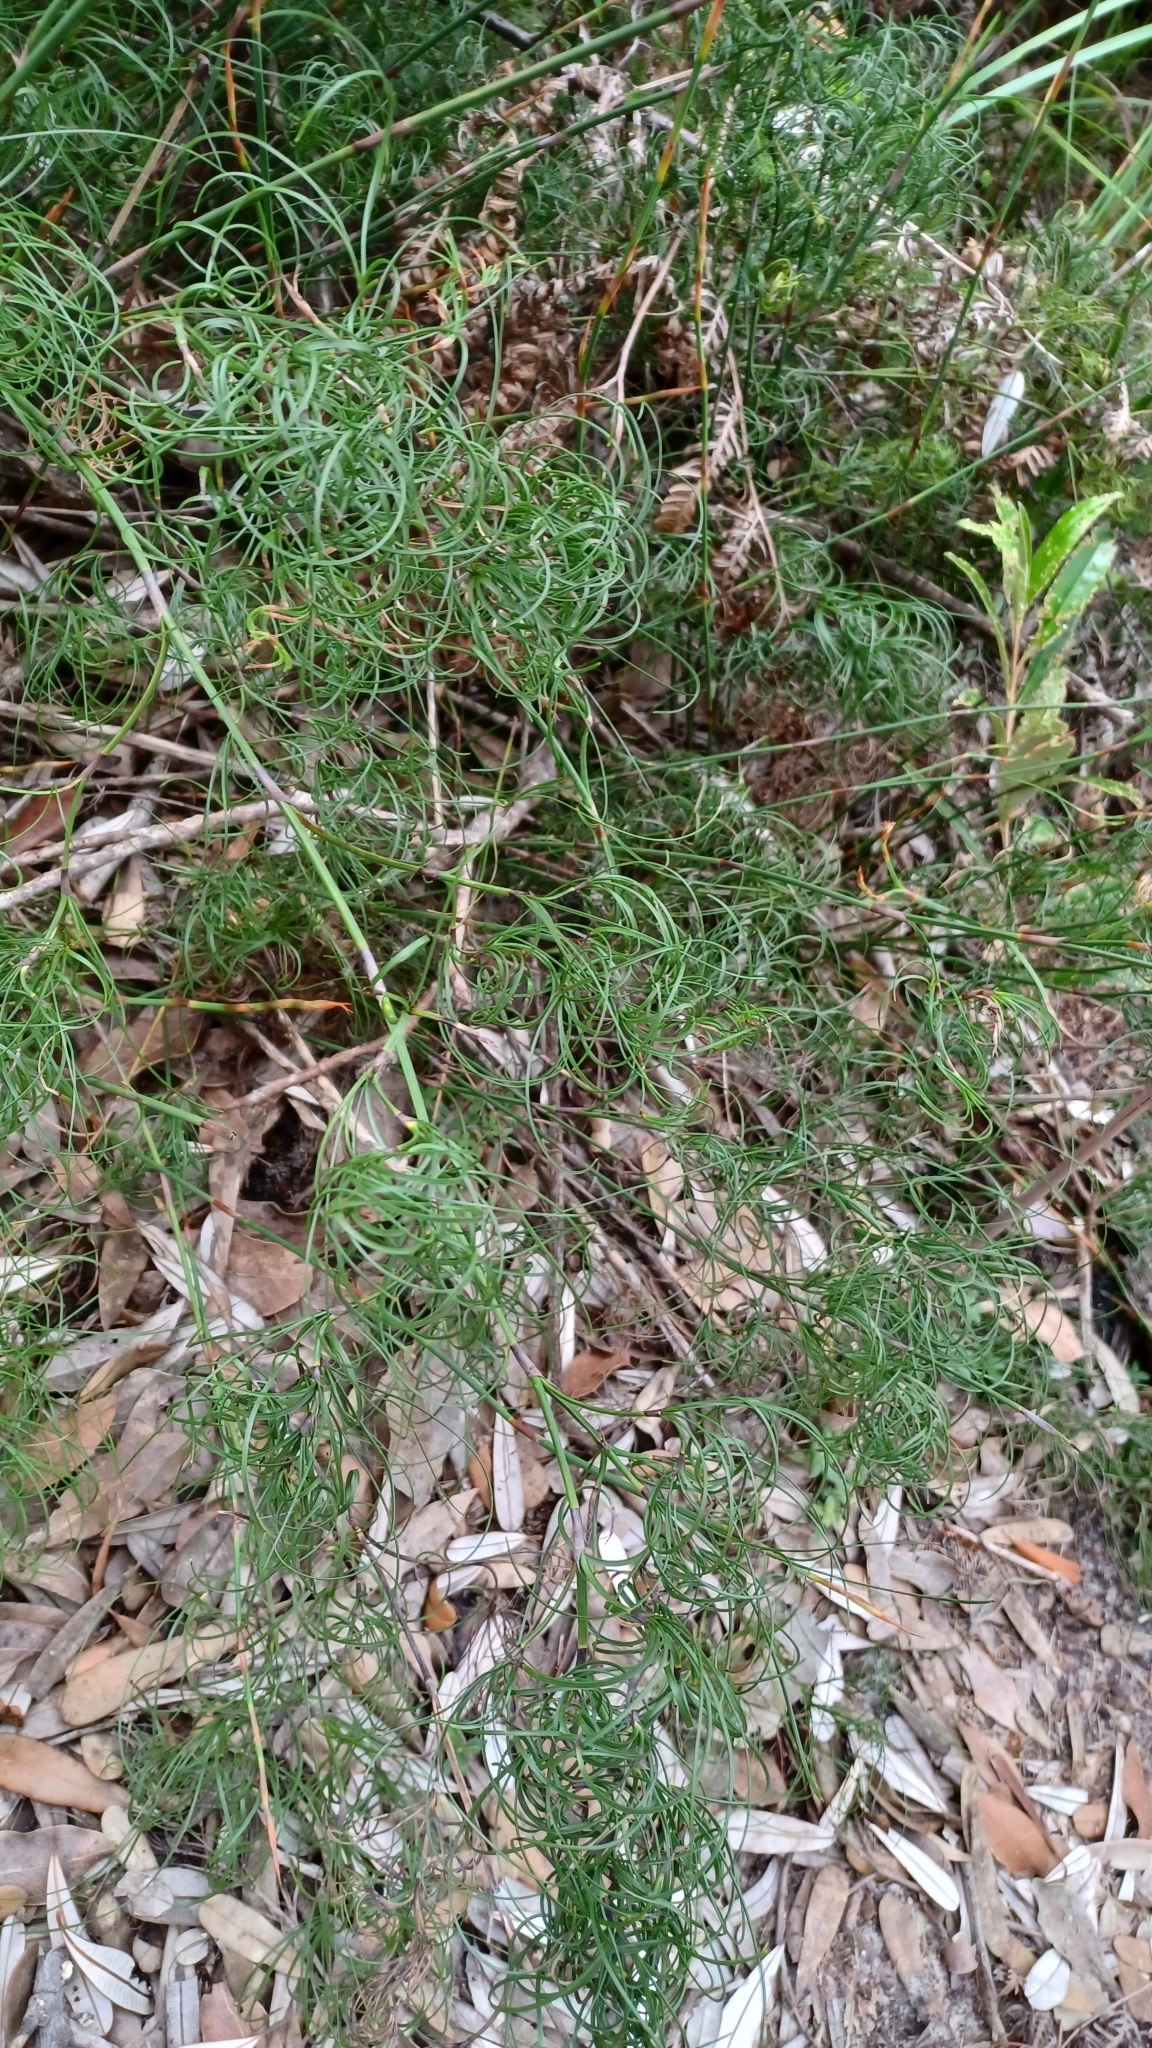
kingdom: Plantae
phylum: Tracheophyta
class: Liliopsida
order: Poales
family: Cyperaceae
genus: Caustis
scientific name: Caustis recurvata
